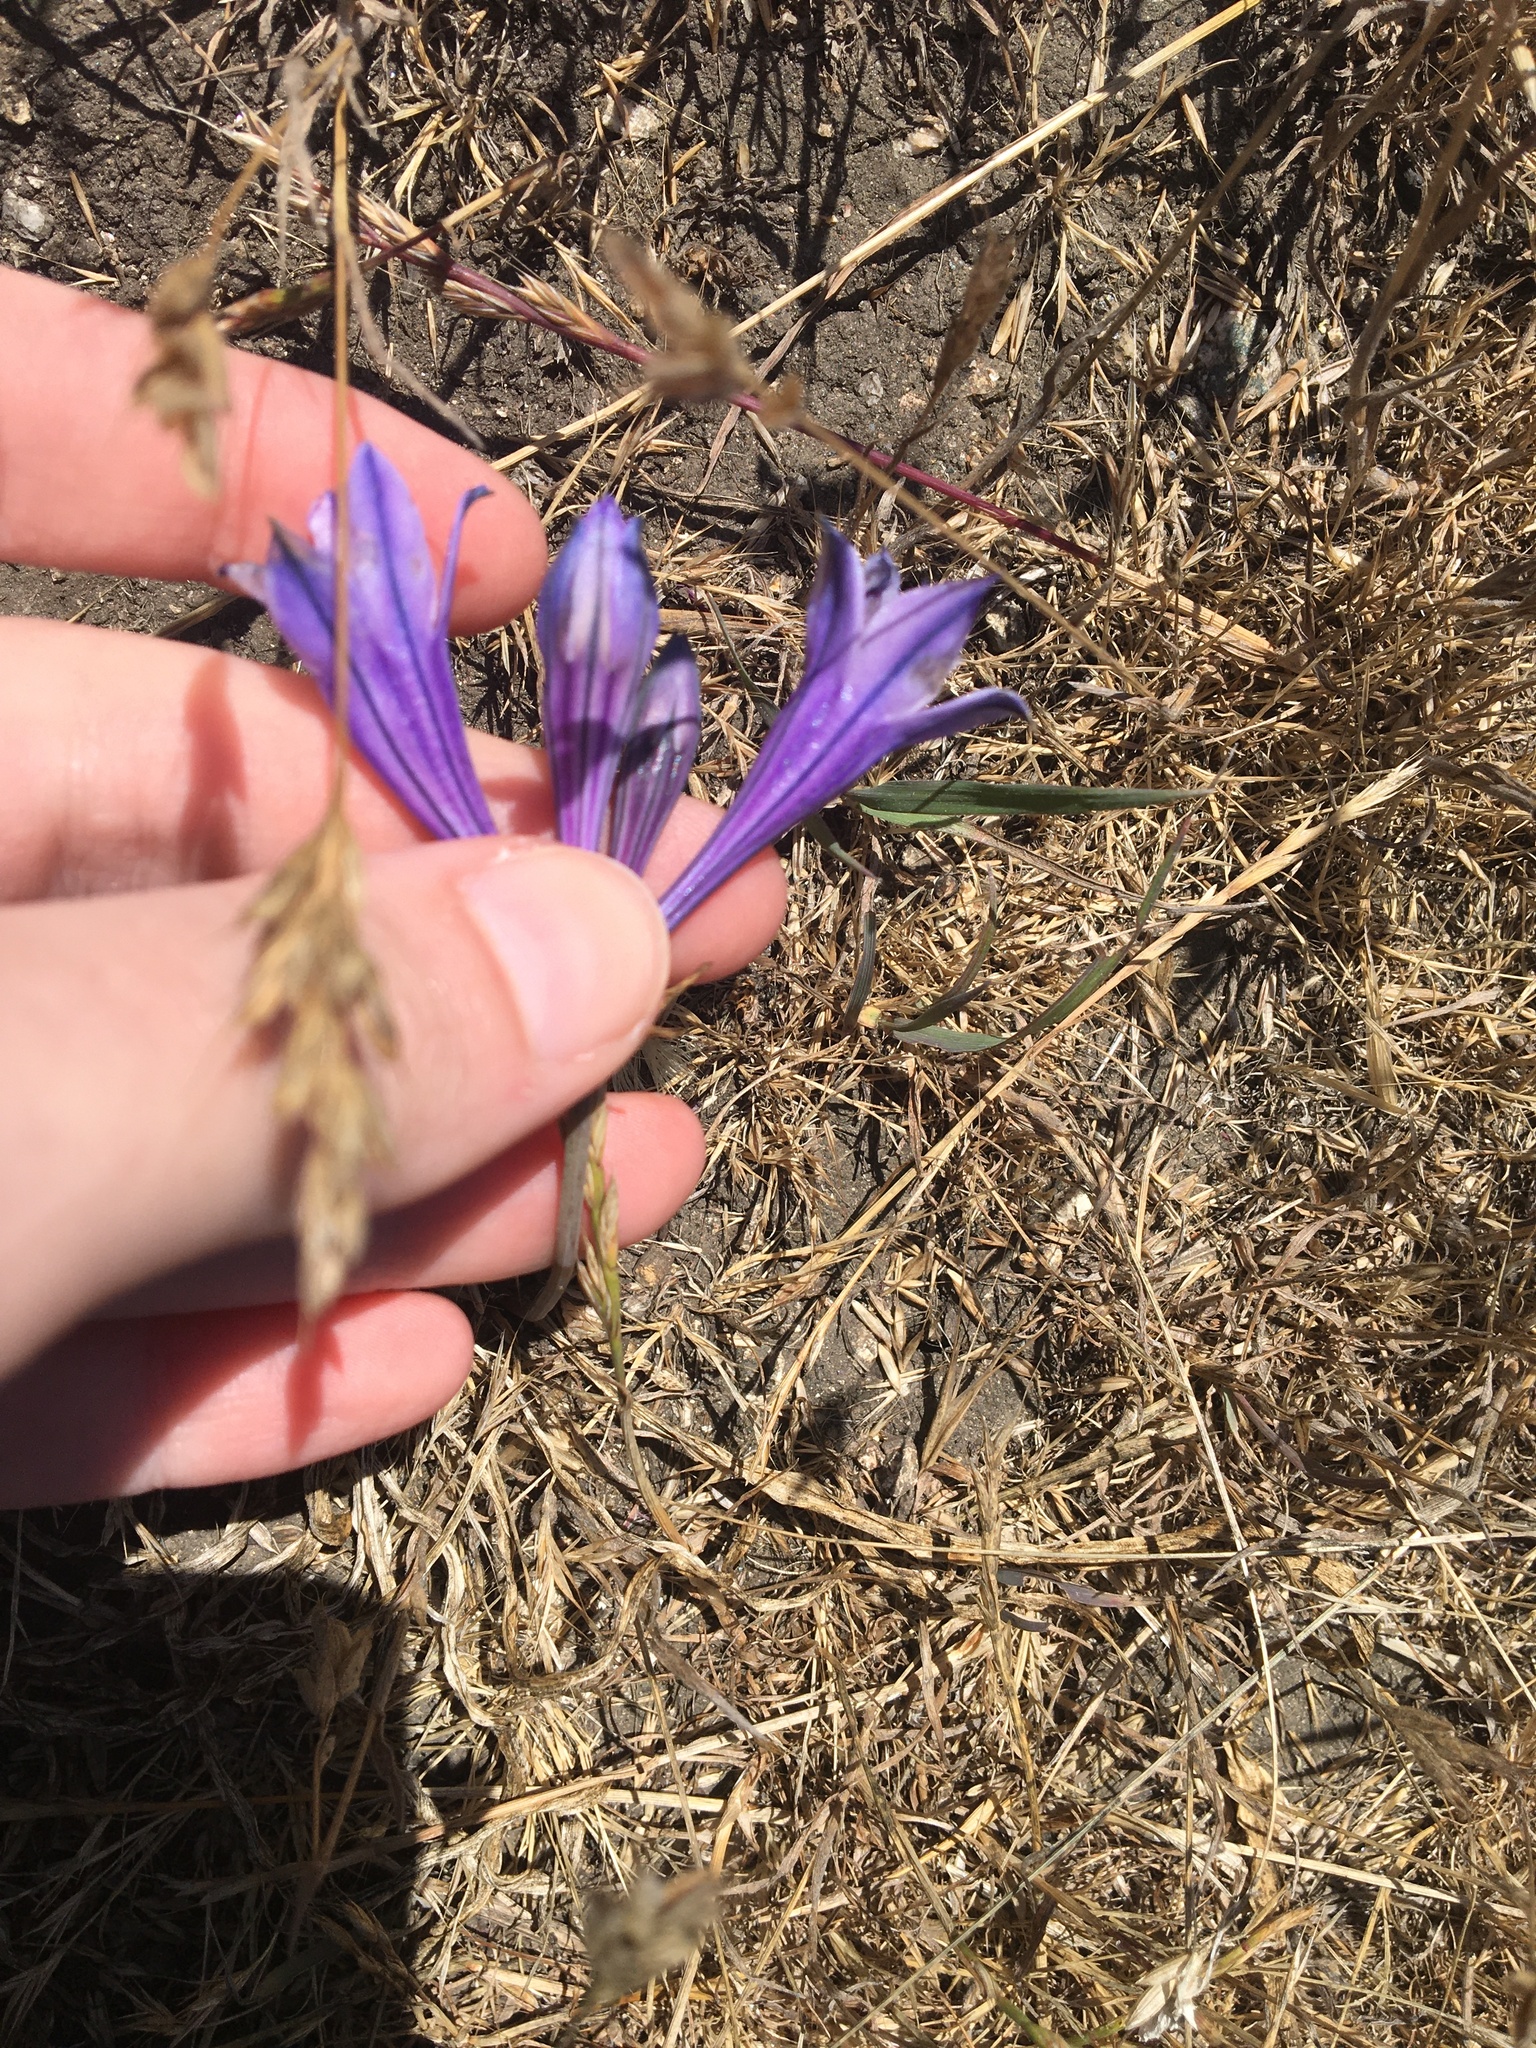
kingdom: Plantae
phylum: Tracheophyta
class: Liliopsida
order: Asparagales
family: Asparagaceae
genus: Triteleia
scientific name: Triteleia laxa
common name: Triplet-lily
